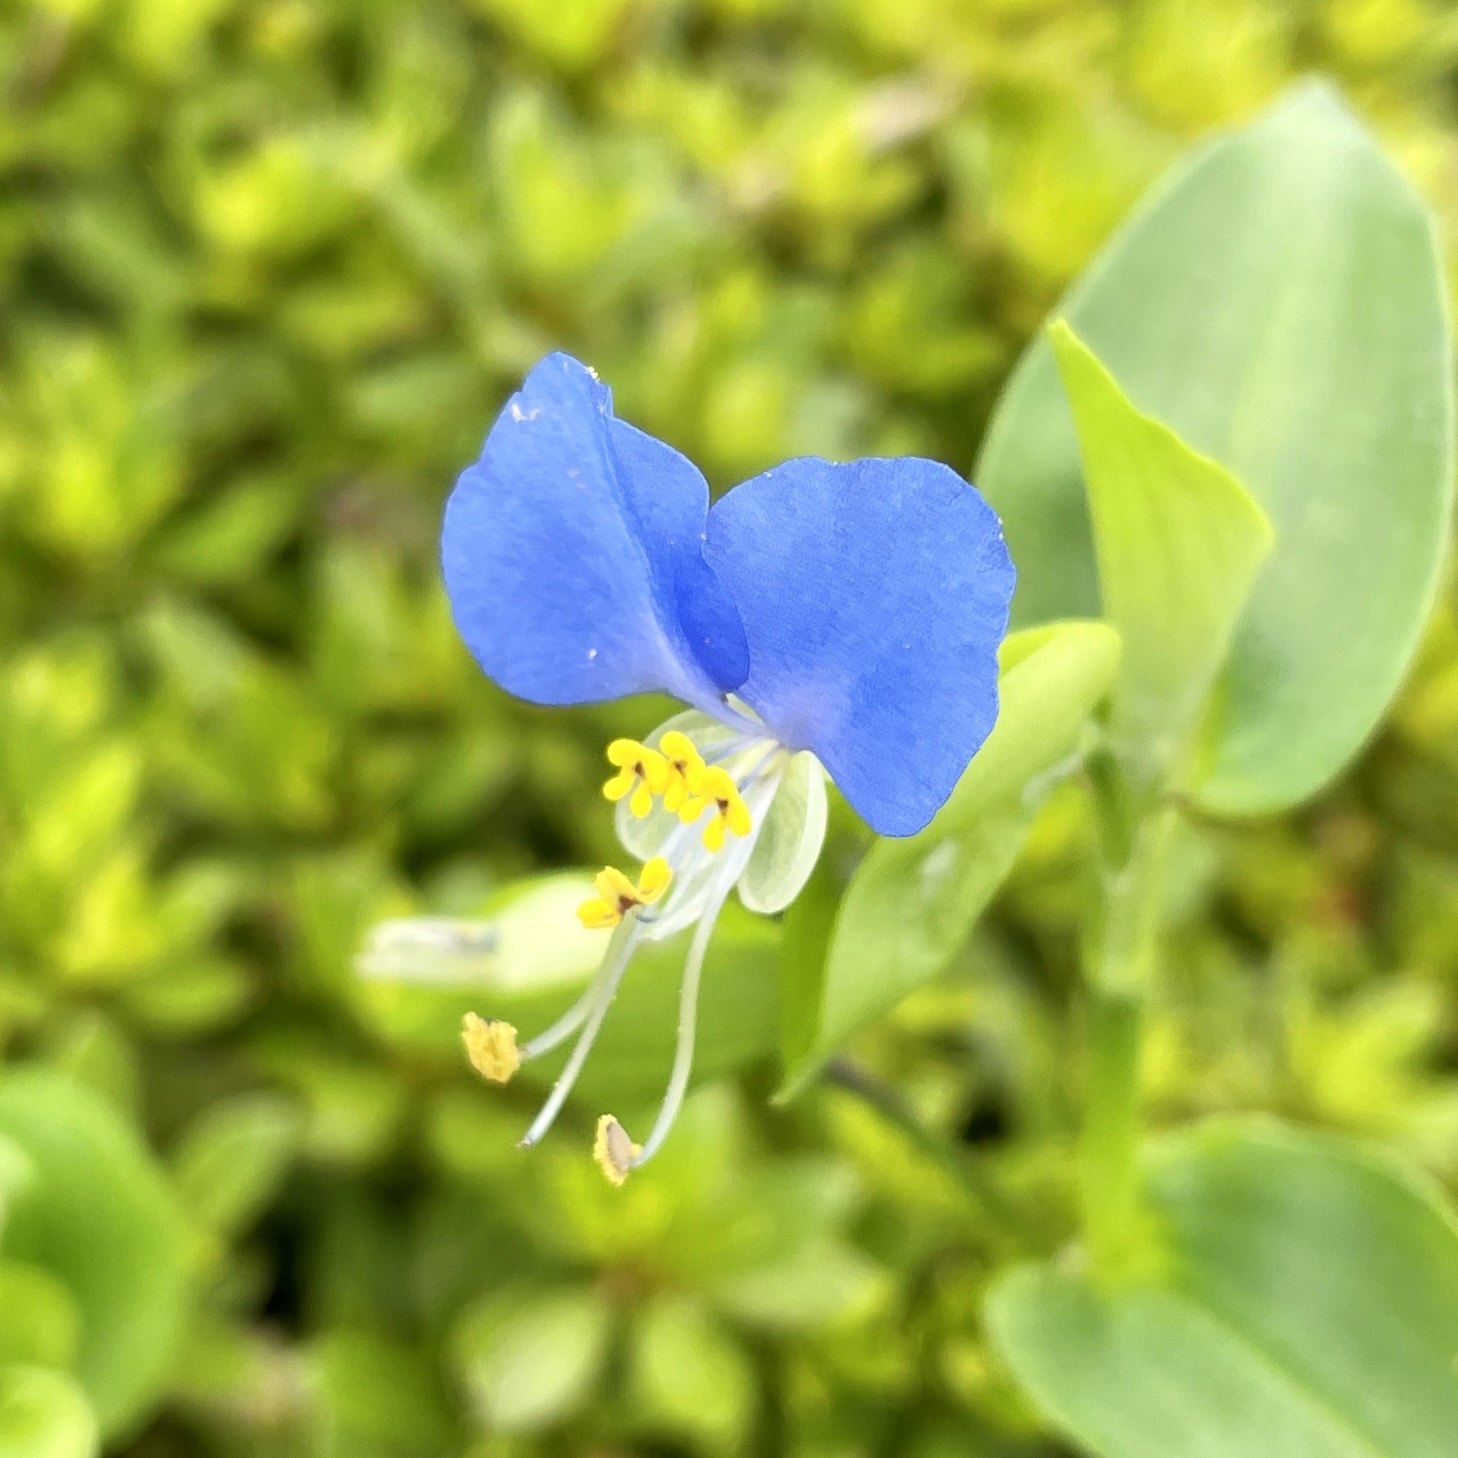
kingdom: Plantae
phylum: Tracheophyta
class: Liliopsida
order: Commelinales
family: Commelinaceae
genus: Commelina
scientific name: Commelina communis
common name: Asiatic dayflower
